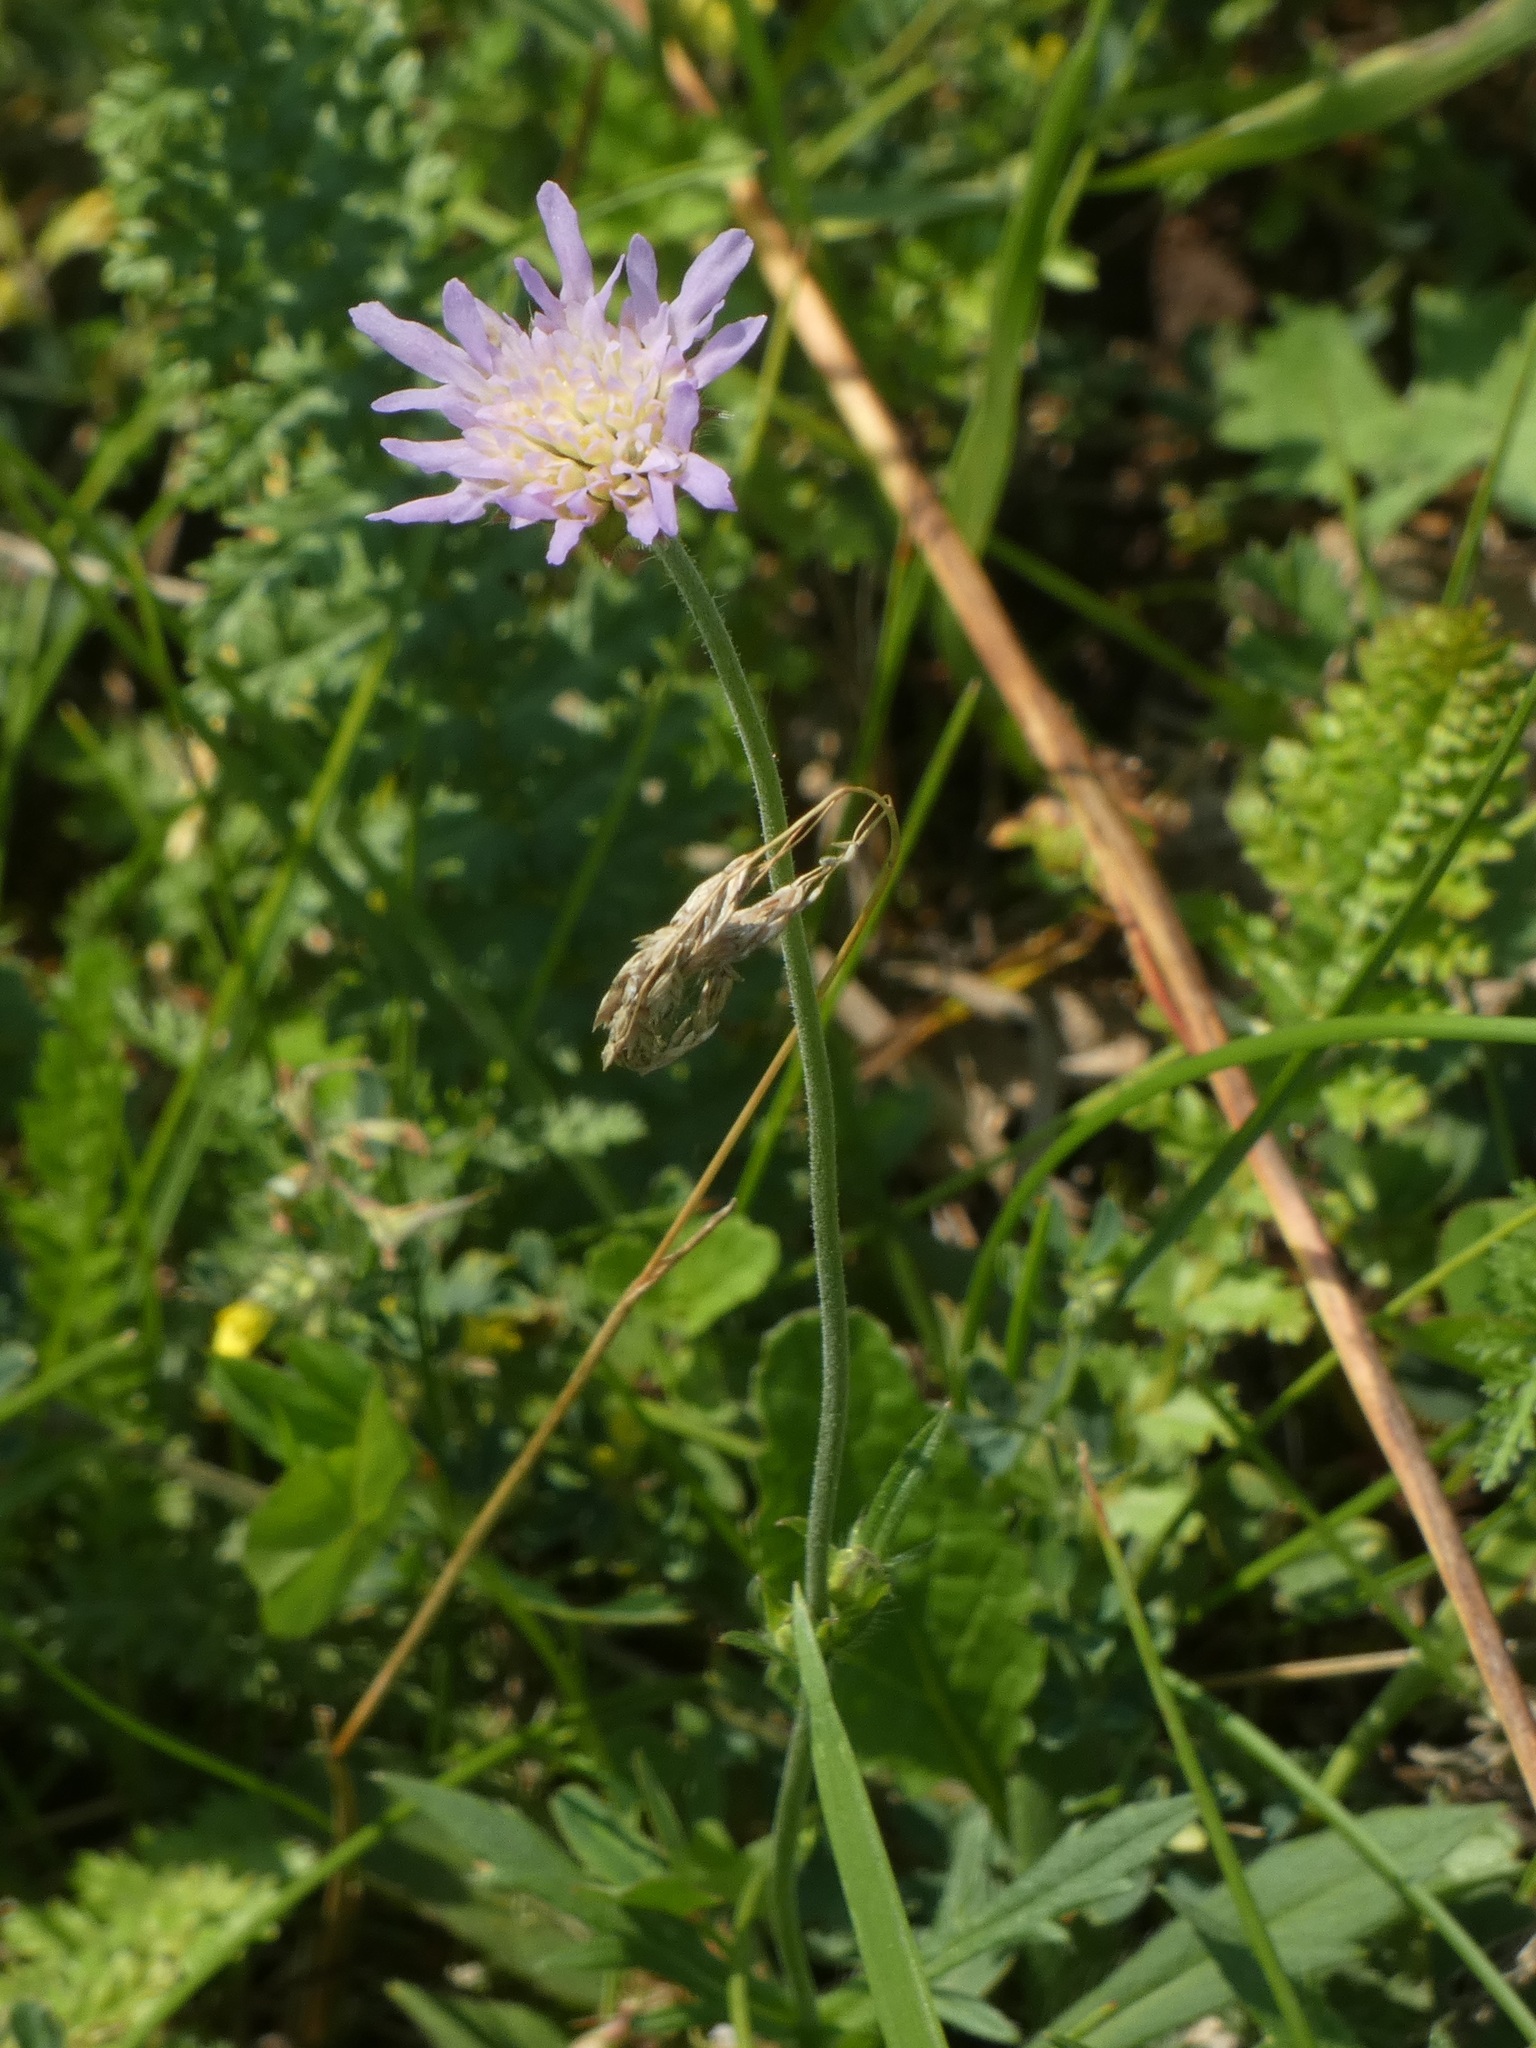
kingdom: Plantae
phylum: Tracheophyta
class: Magnoliopsida
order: Dipsacales
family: Caprifoliaceae
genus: Knautia
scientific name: Knautia arvensis
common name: Field scabiosa
